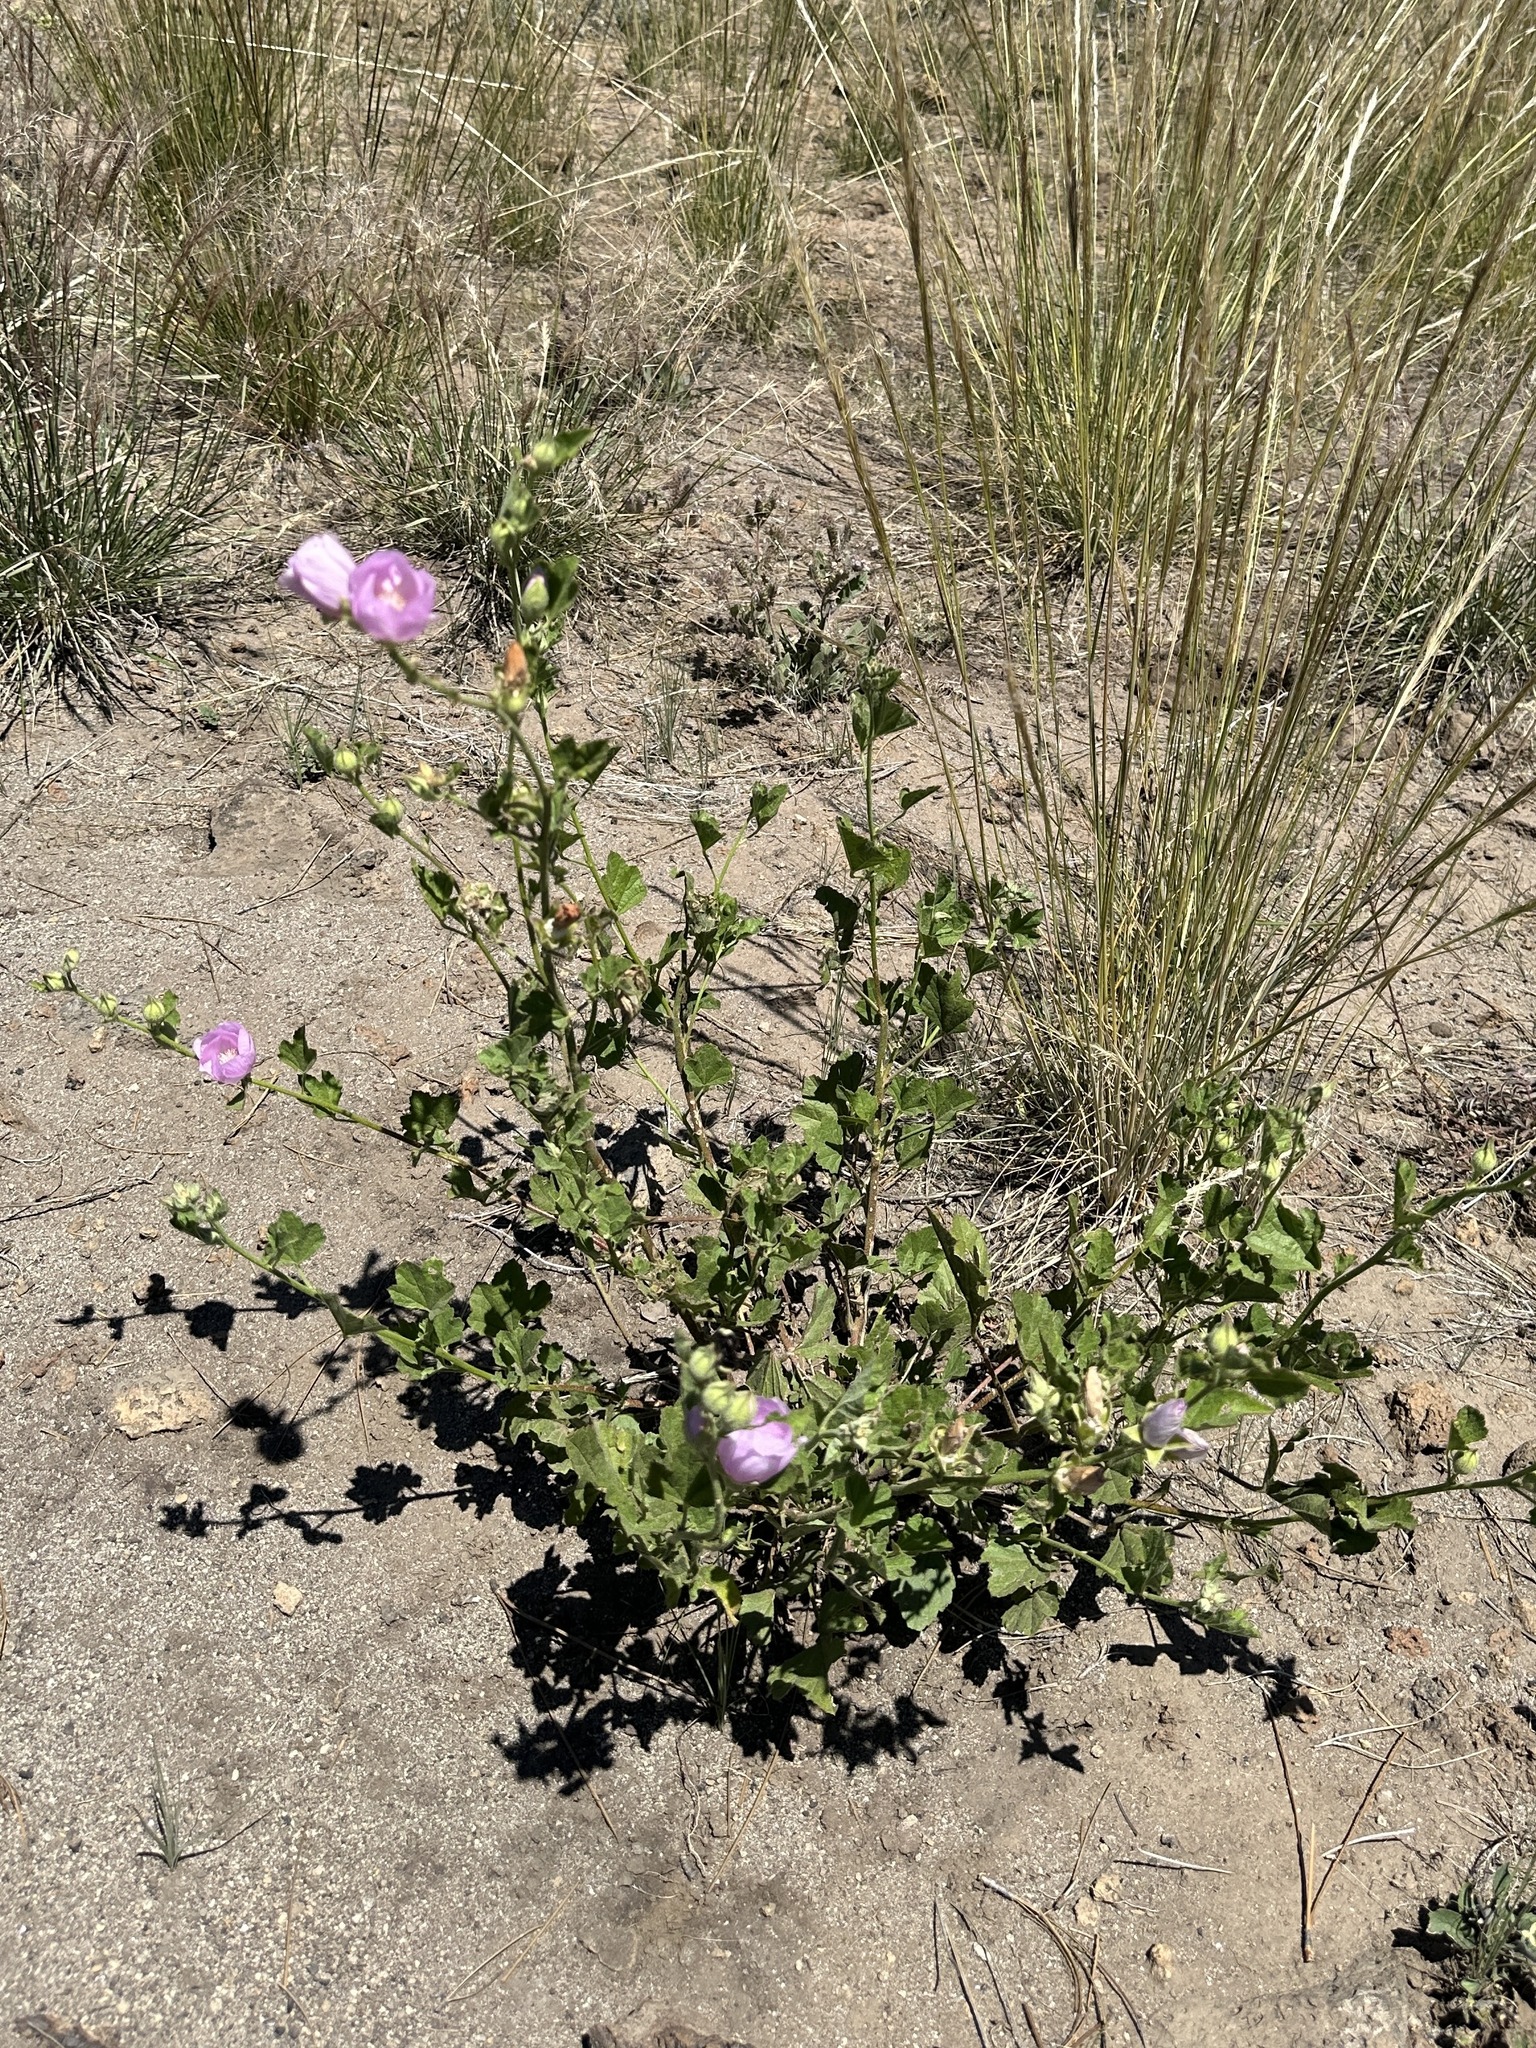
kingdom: Plantae
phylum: Tracheophyta
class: Magnoliopsida
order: Malvales
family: Malvaceae
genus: Iliamna
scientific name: Iliamna bakeri
